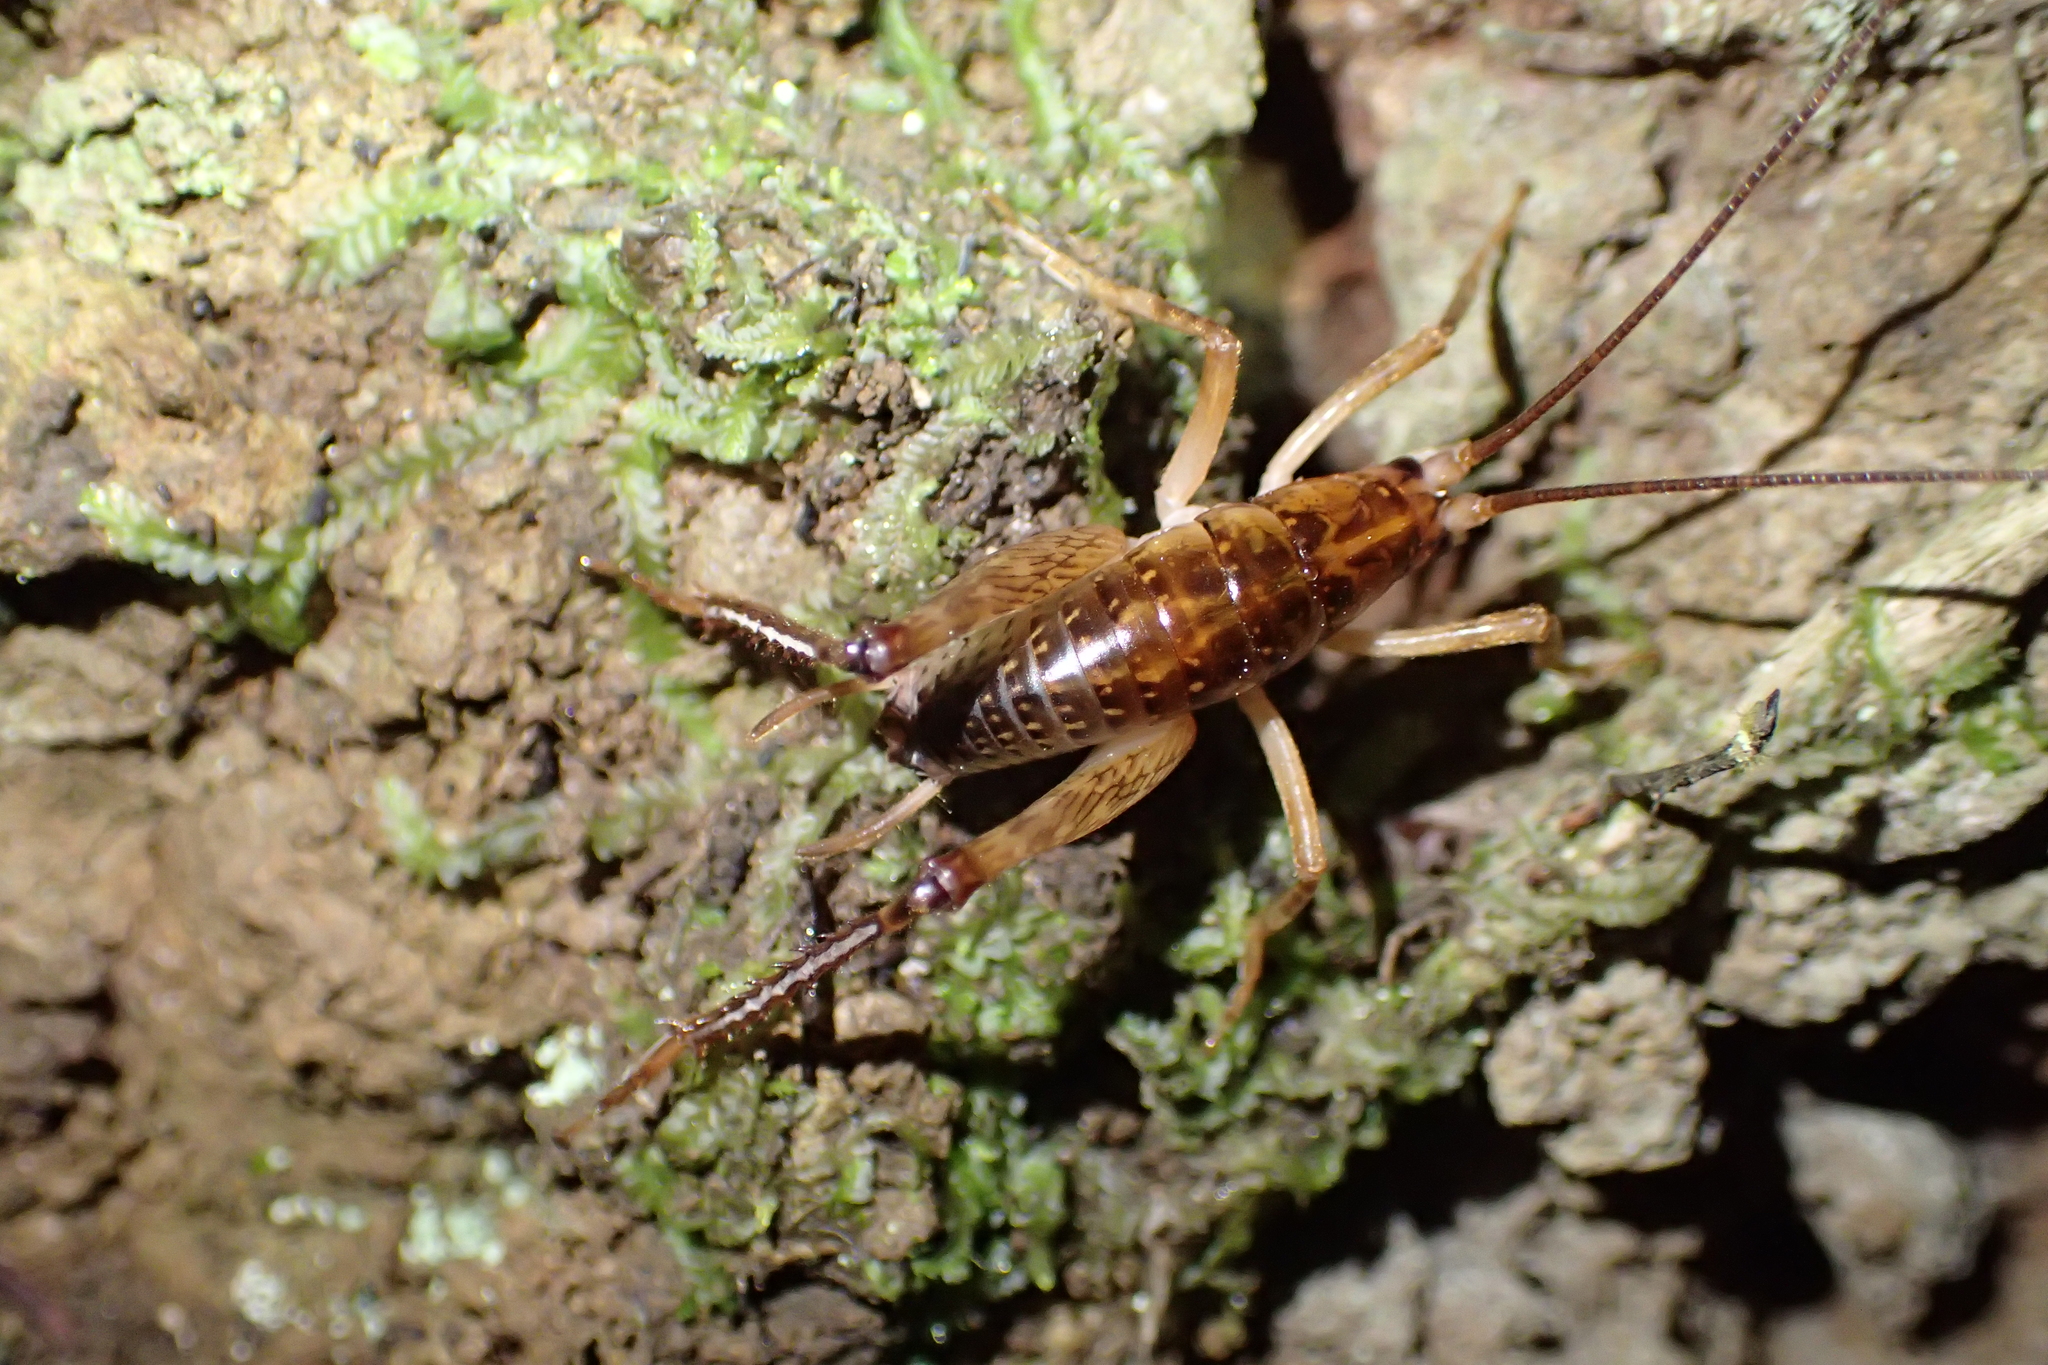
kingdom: Animalia
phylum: Arthropoda
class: Insecta
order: Orthoptera
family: Rhaphidophoridae
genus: Talitropsis
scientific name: Talitropsis sedilloti
